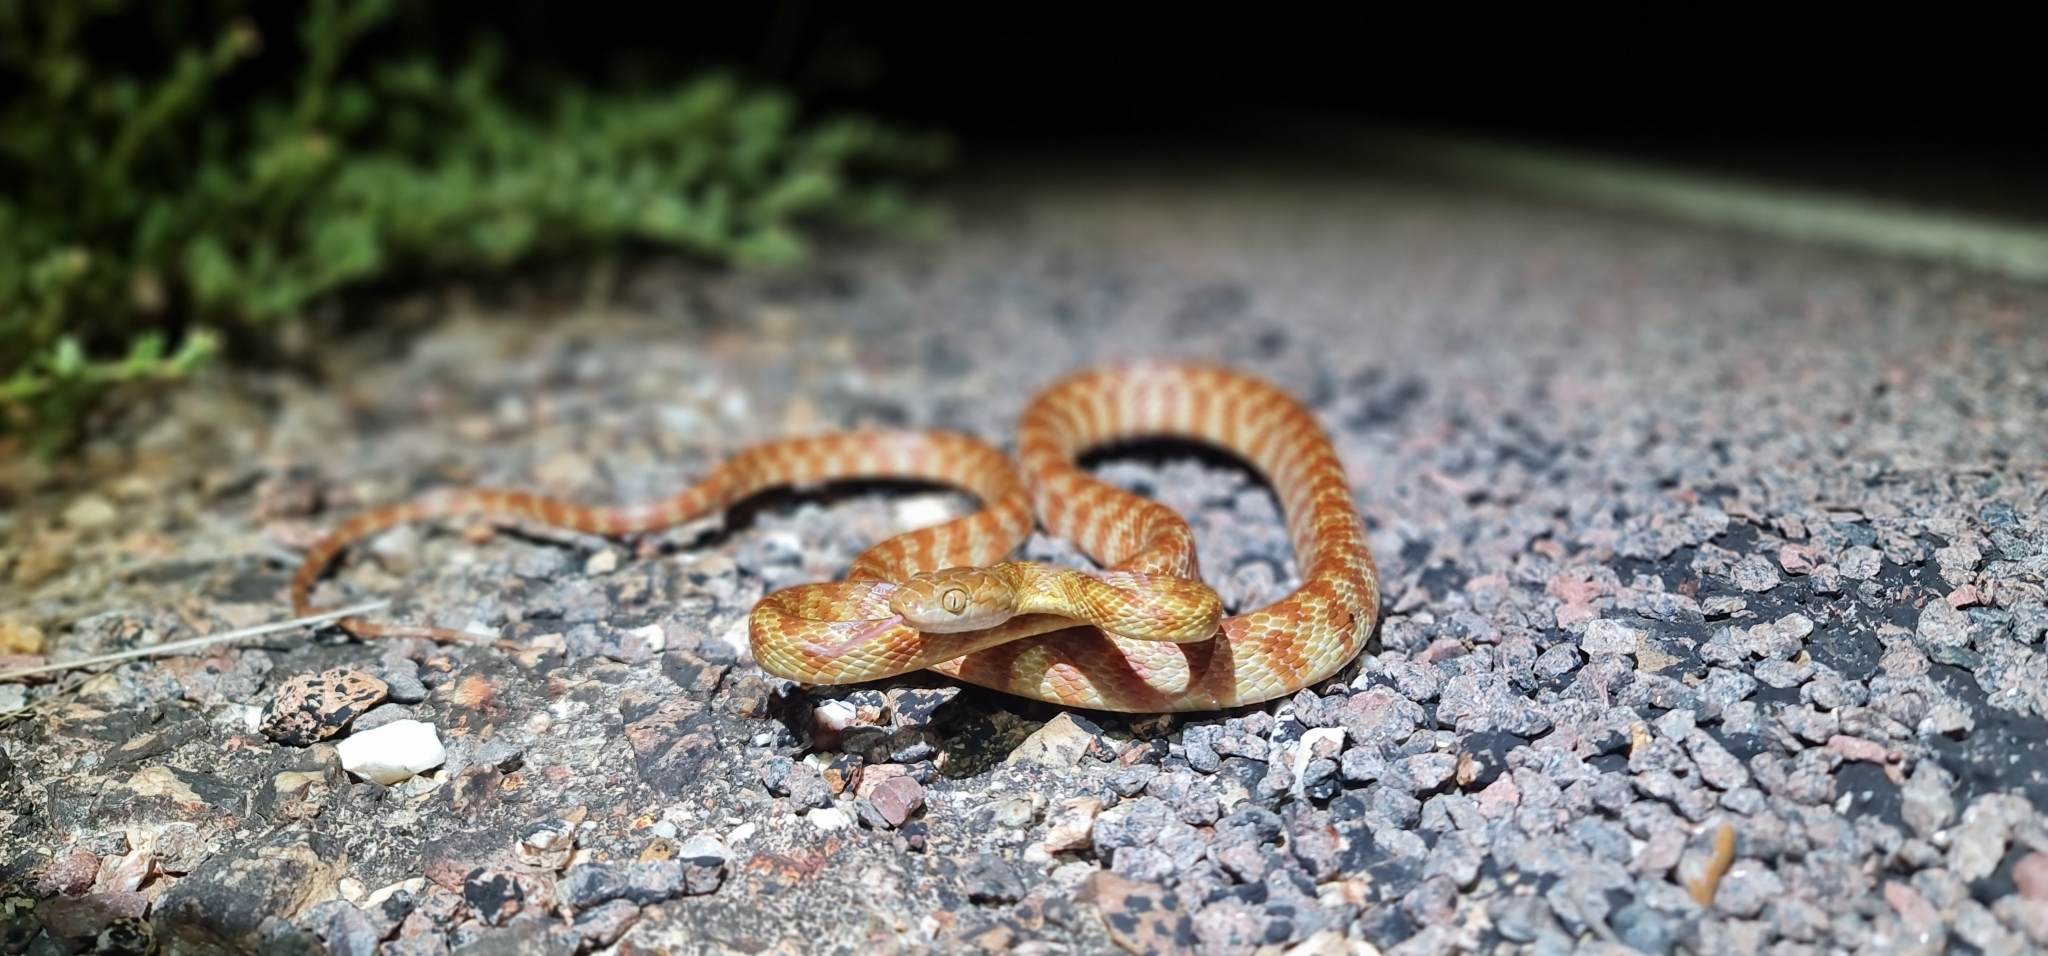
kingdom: Animalia
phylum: Chordata
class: Squamata
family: Colubridae
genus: Boiga
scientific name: Boiga irregularis
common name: Brown tree snake
